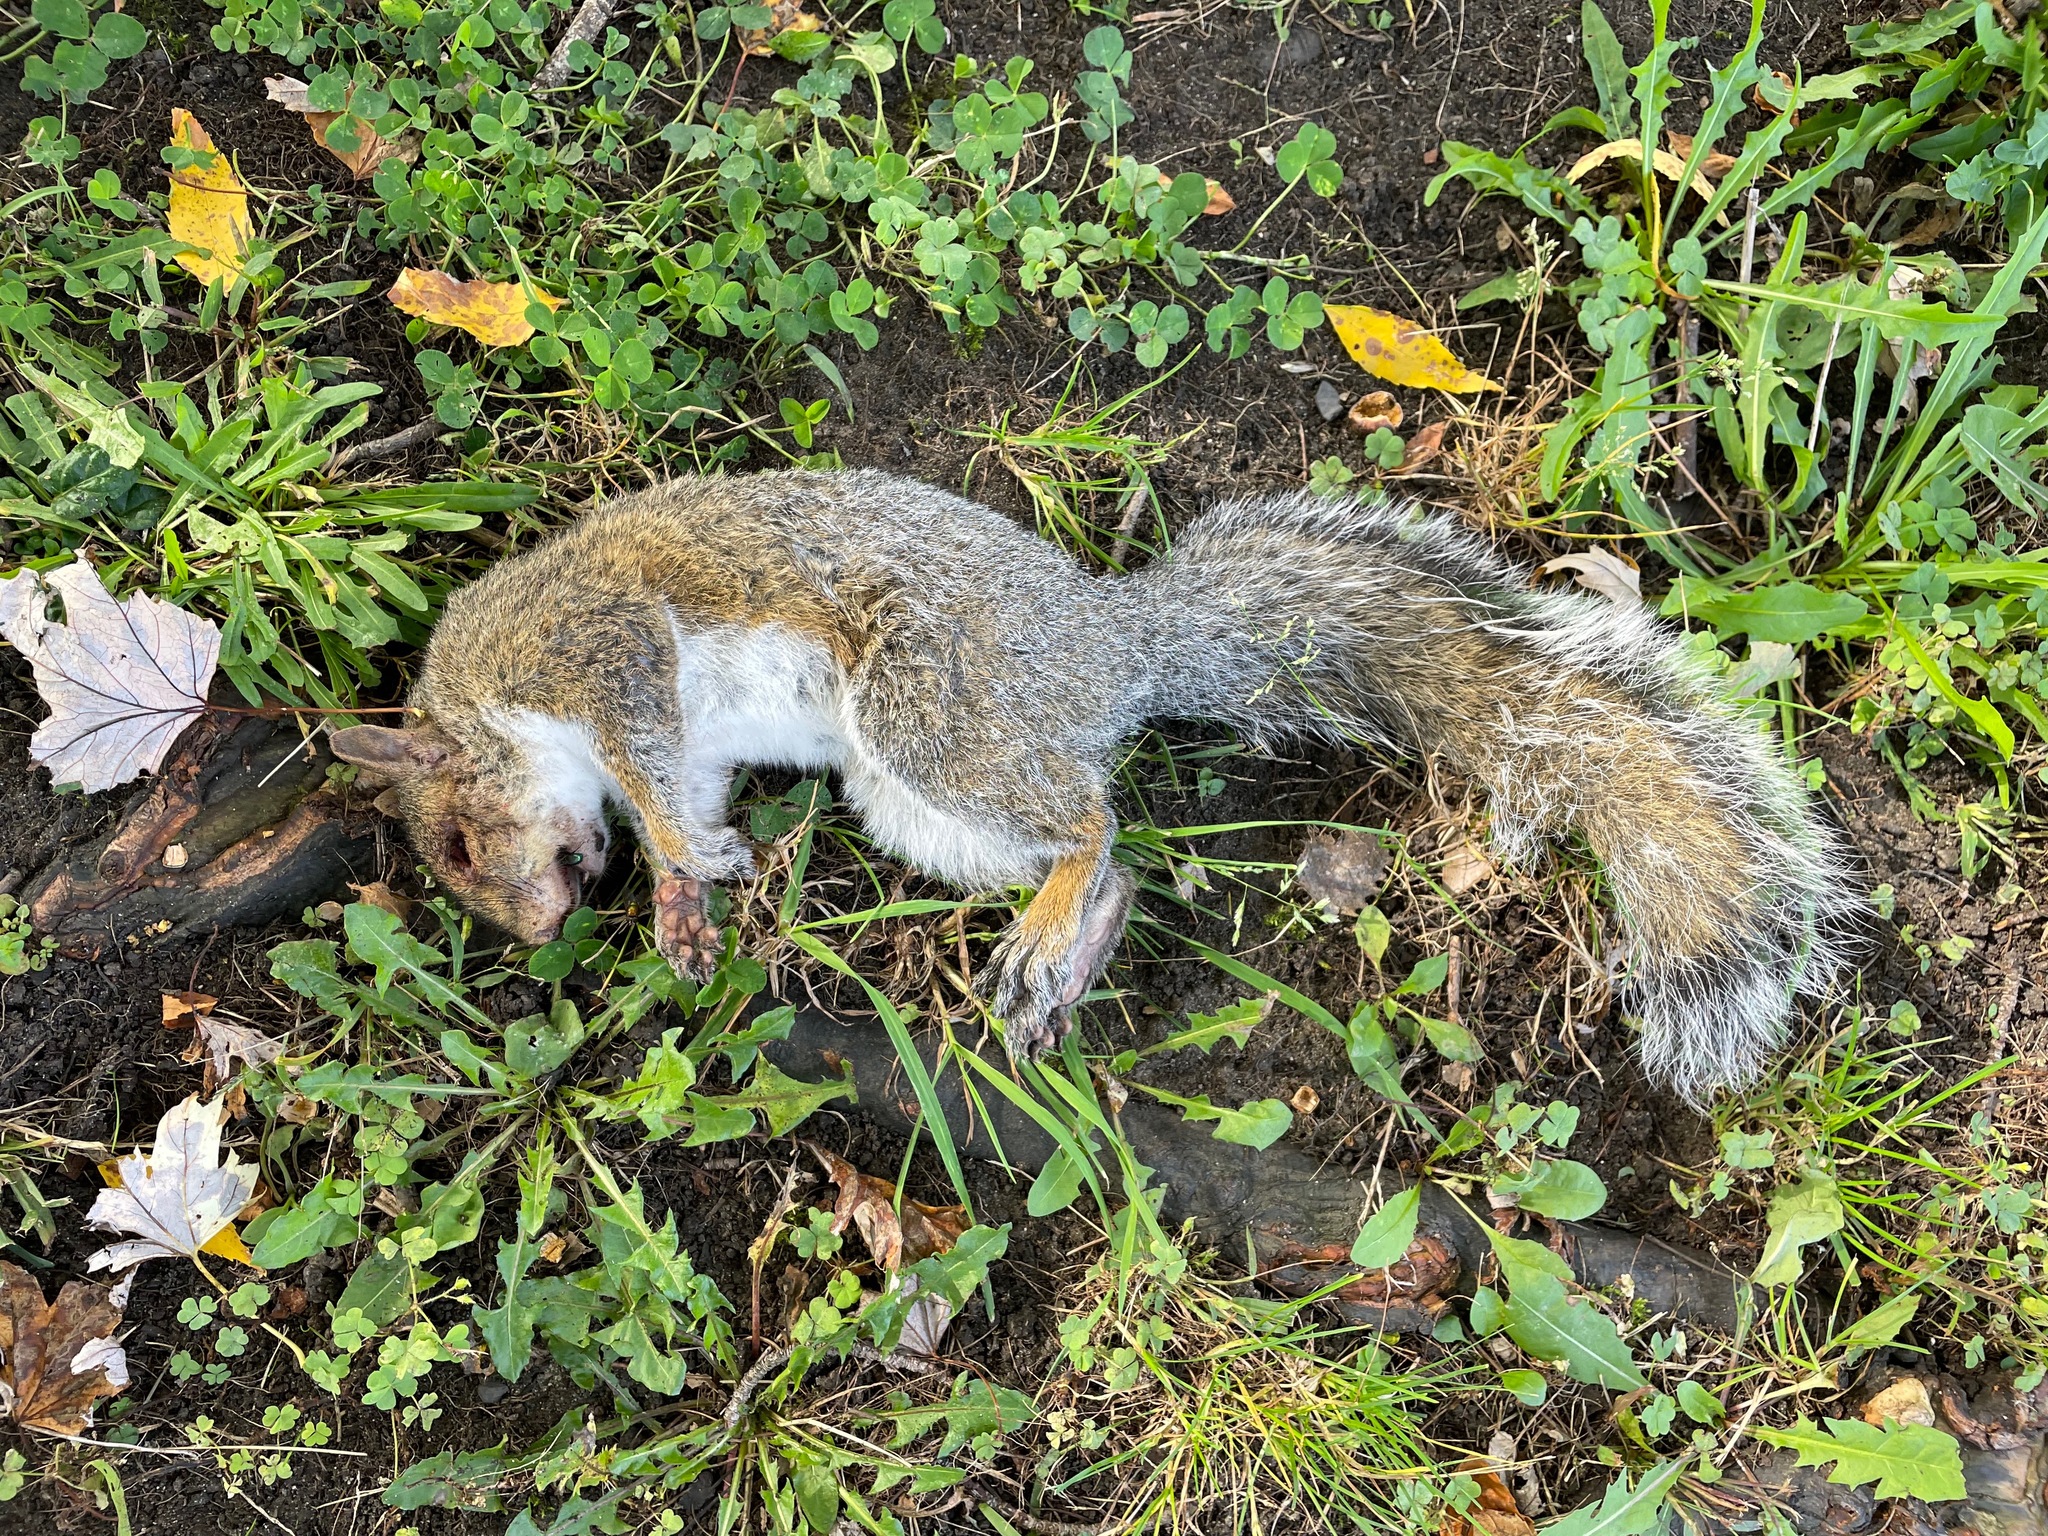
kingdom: Animalia
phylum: Chordata
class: Mammalia
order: Rodentia
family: Sciuridae
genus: Sciurus
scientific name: Sciurus carolinensis
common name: Eastern gray squirrel
